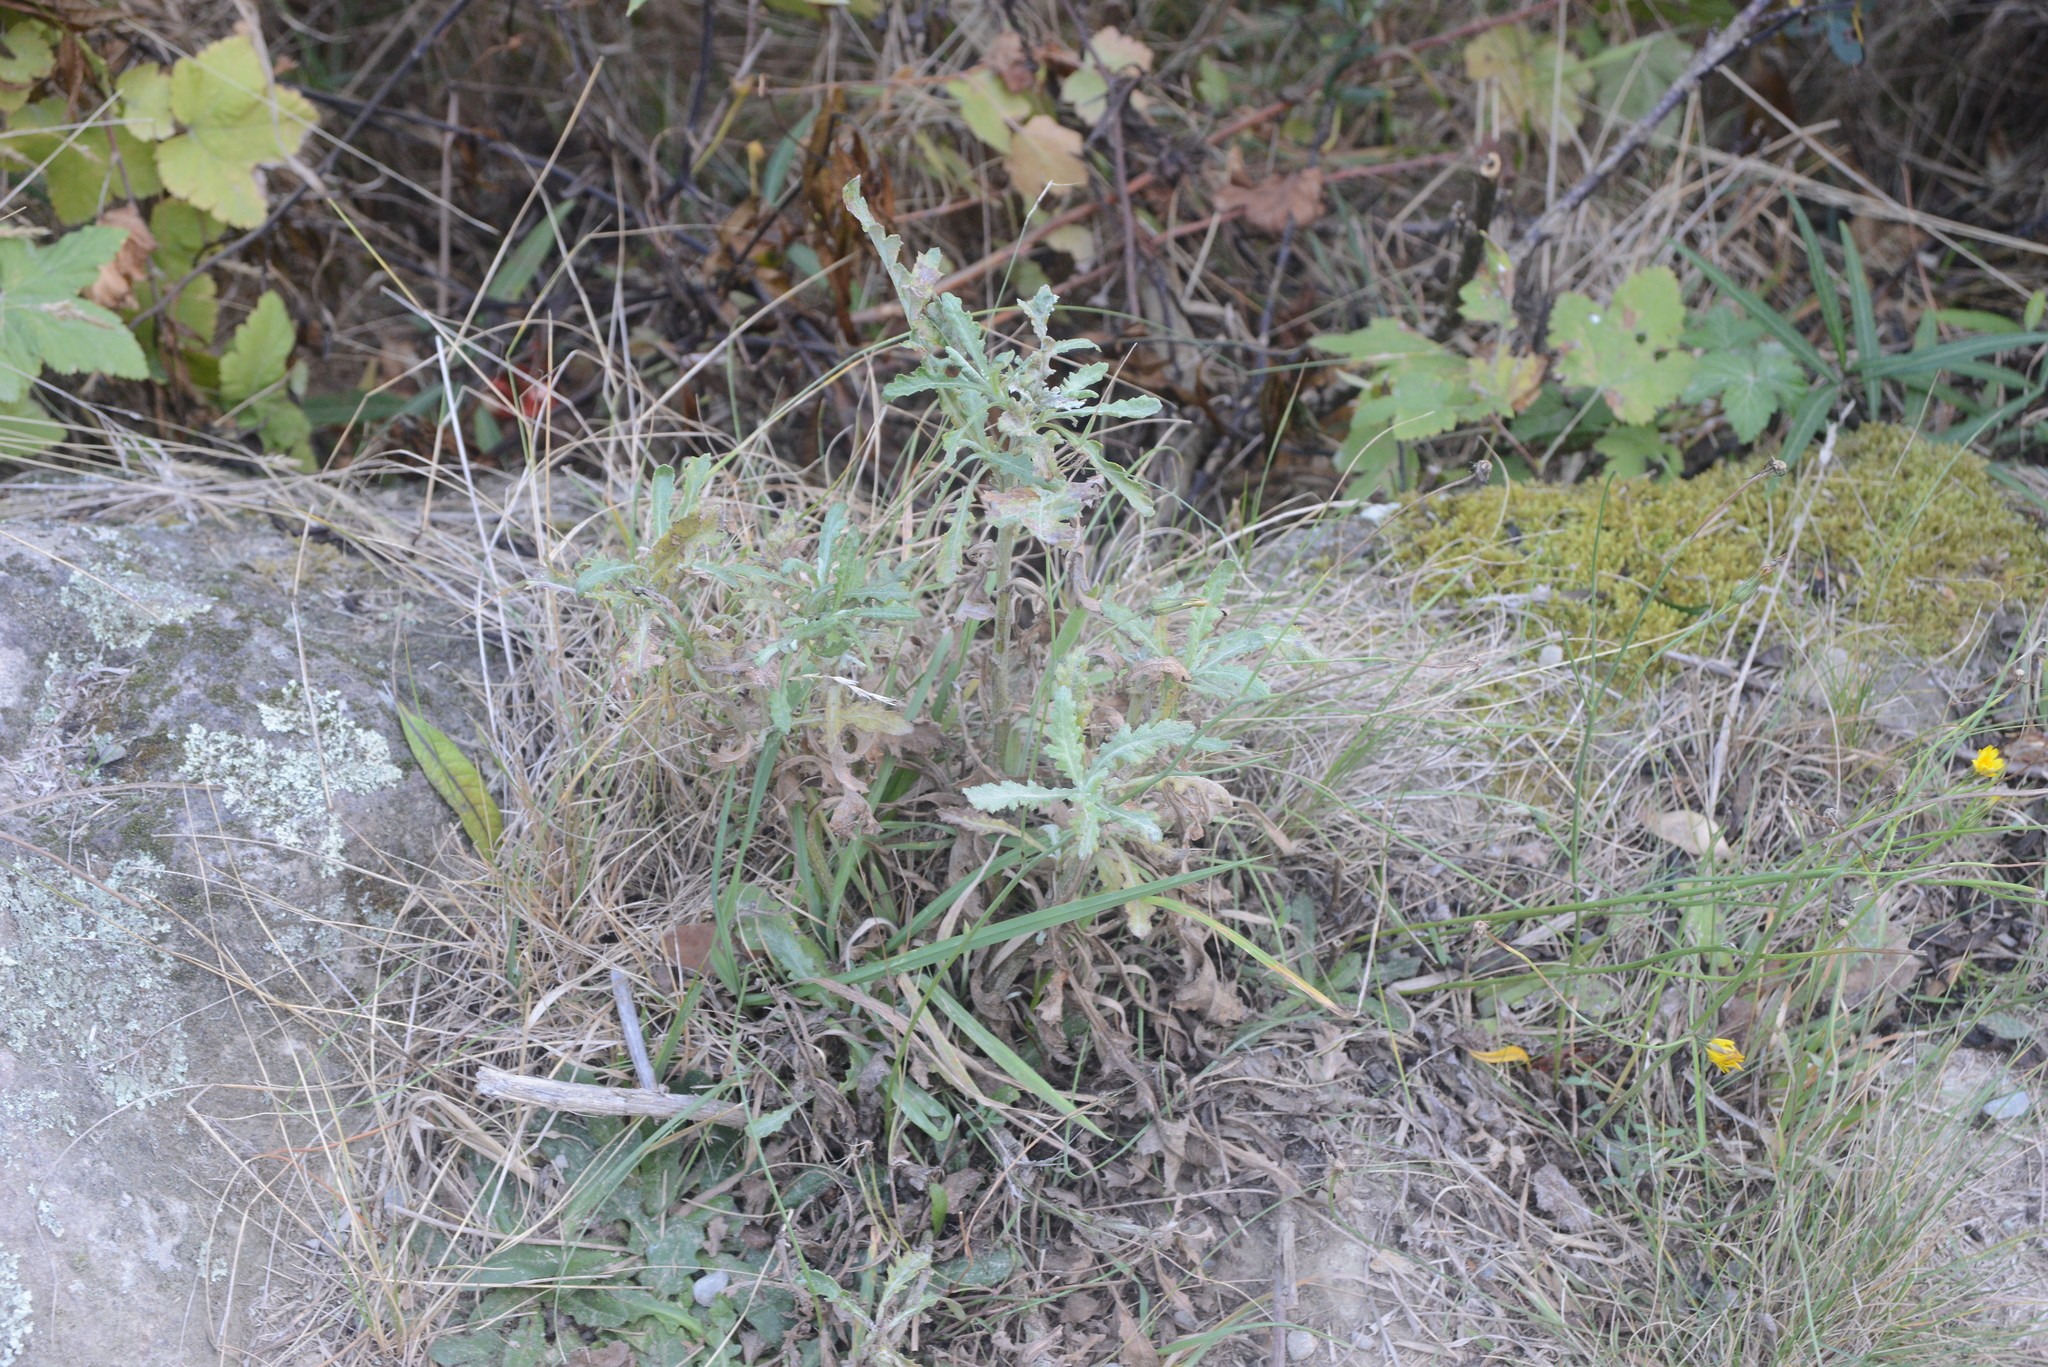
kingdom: Plantae
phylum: Tracheophyta
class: Magnoliopsida
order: Asterales
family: Asteraceae
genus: Senecio
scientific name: Senecio glomeratus
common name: Cutleaf burnweed
